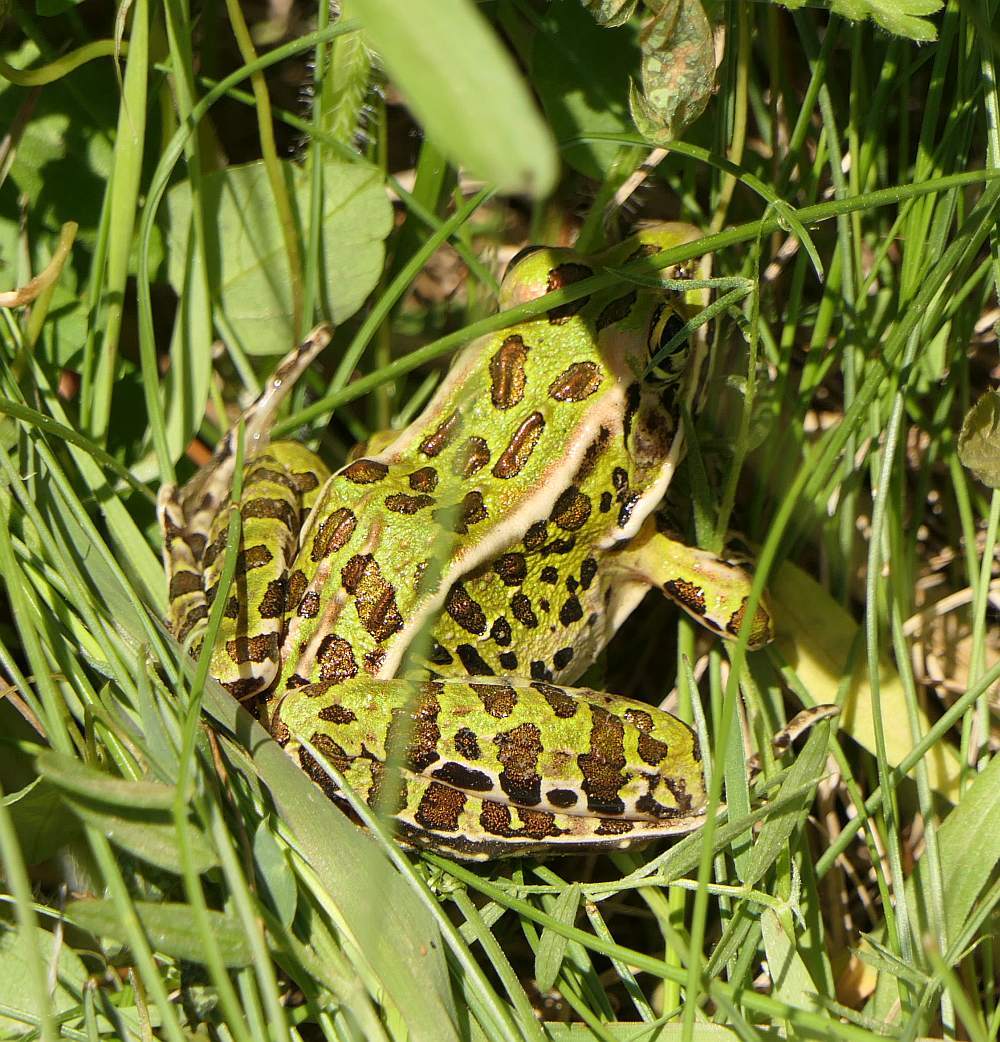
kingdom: Animalia
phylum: Chordata
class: Amphibia
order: Anura
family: Ranidae
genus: Lithobates
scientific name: Lithobates pipiens
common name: Northern leopard frog
